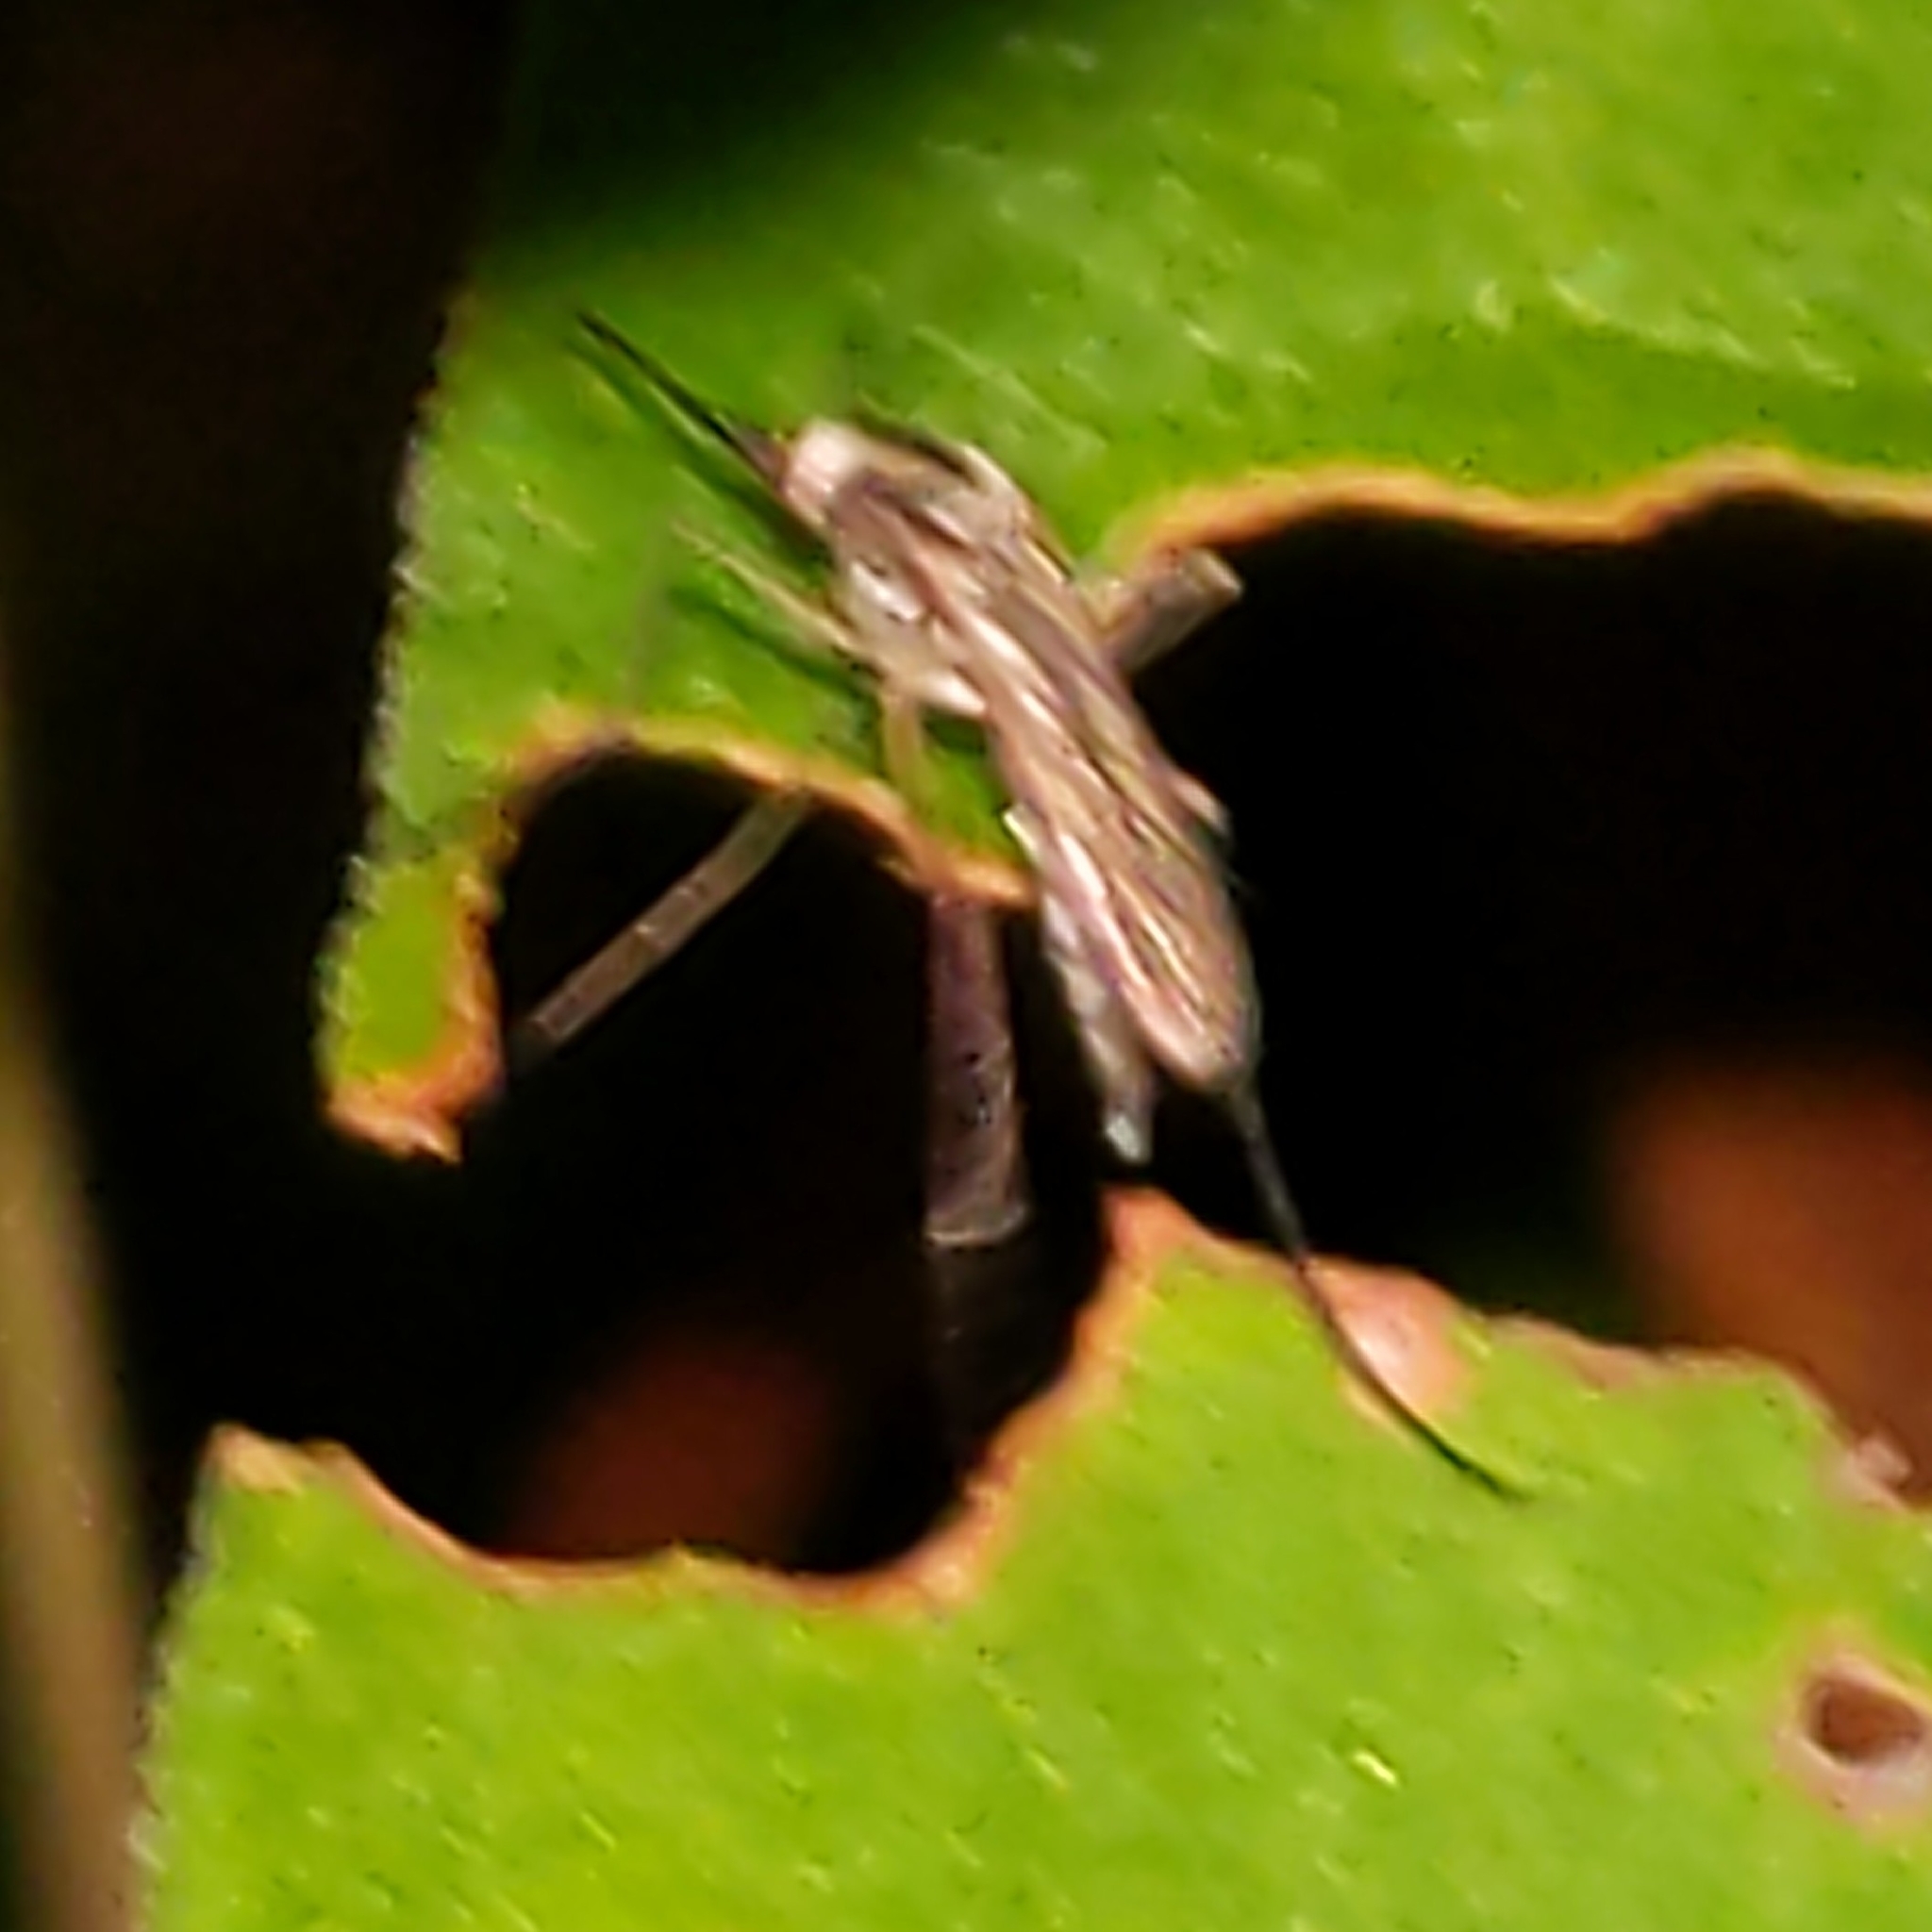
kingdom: Animalia
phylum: Arthropoda
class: Insecta
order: Diptera
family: Culicidae
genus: Aedes
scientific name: Aedes trivittatus
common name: Plains floodwater mosquito
